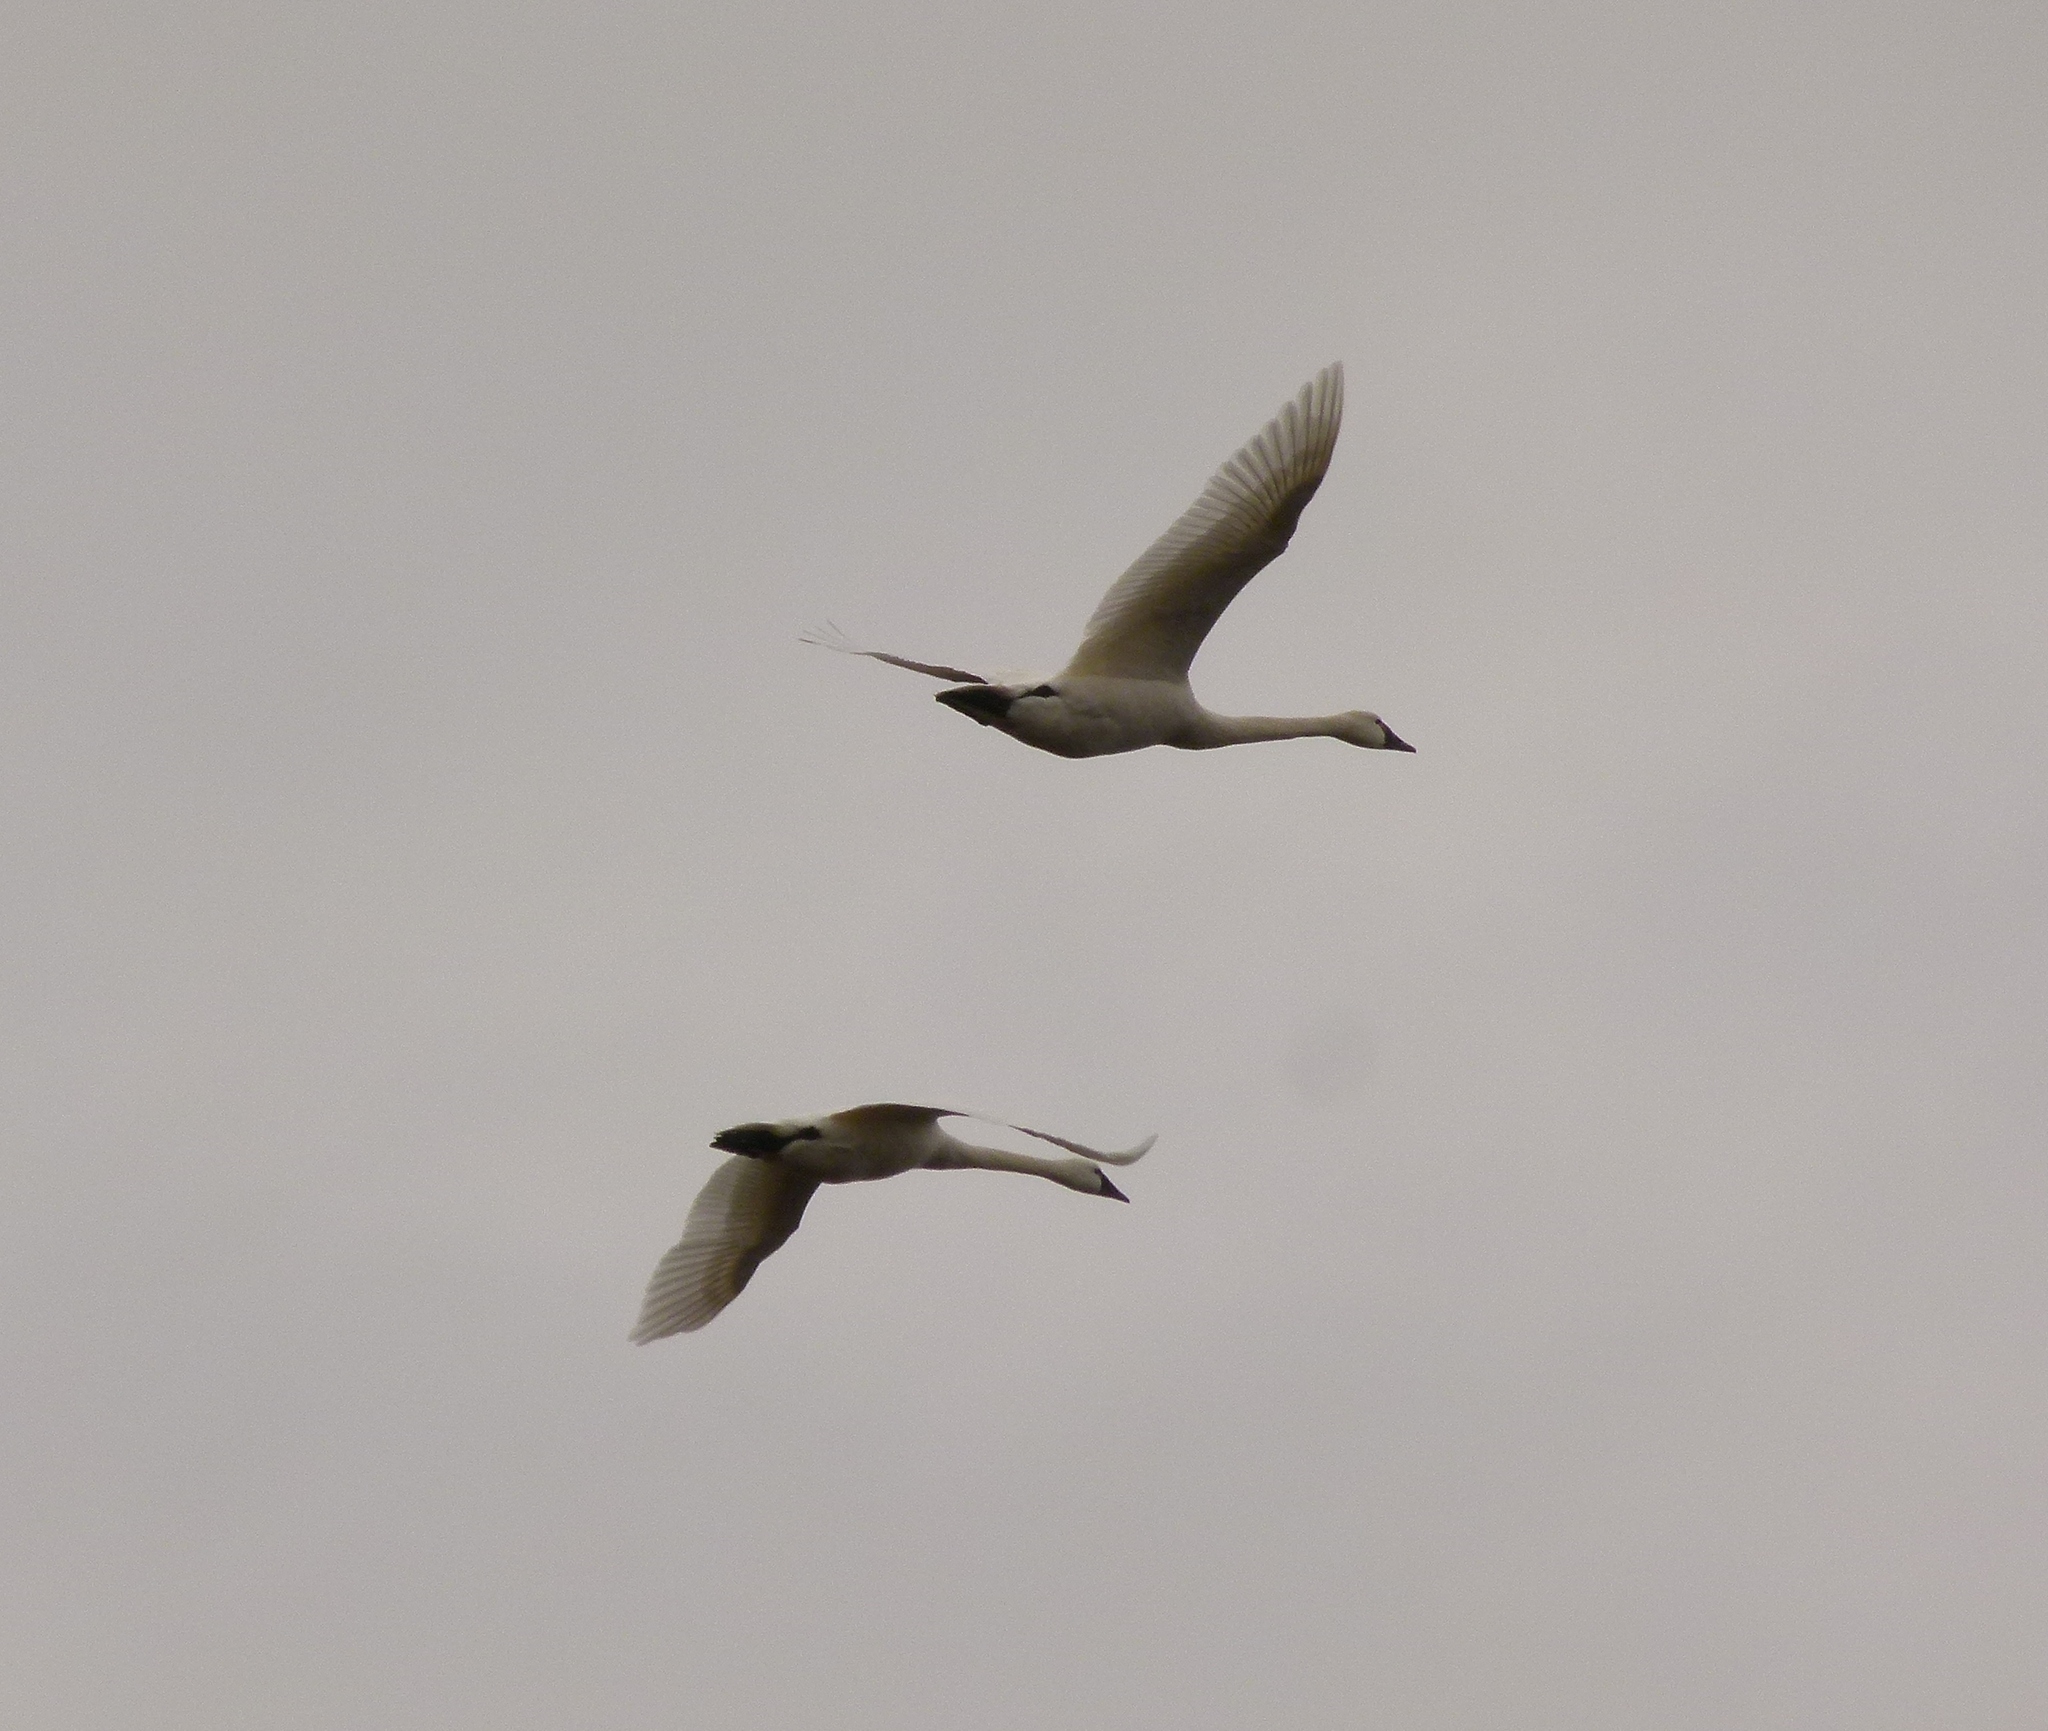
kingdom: Animalia
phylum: Chordata
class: Aves
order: Anseriformes
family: Anatidae
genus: Cygnus
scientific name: Cygnus columbianus
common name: Tundra swan
